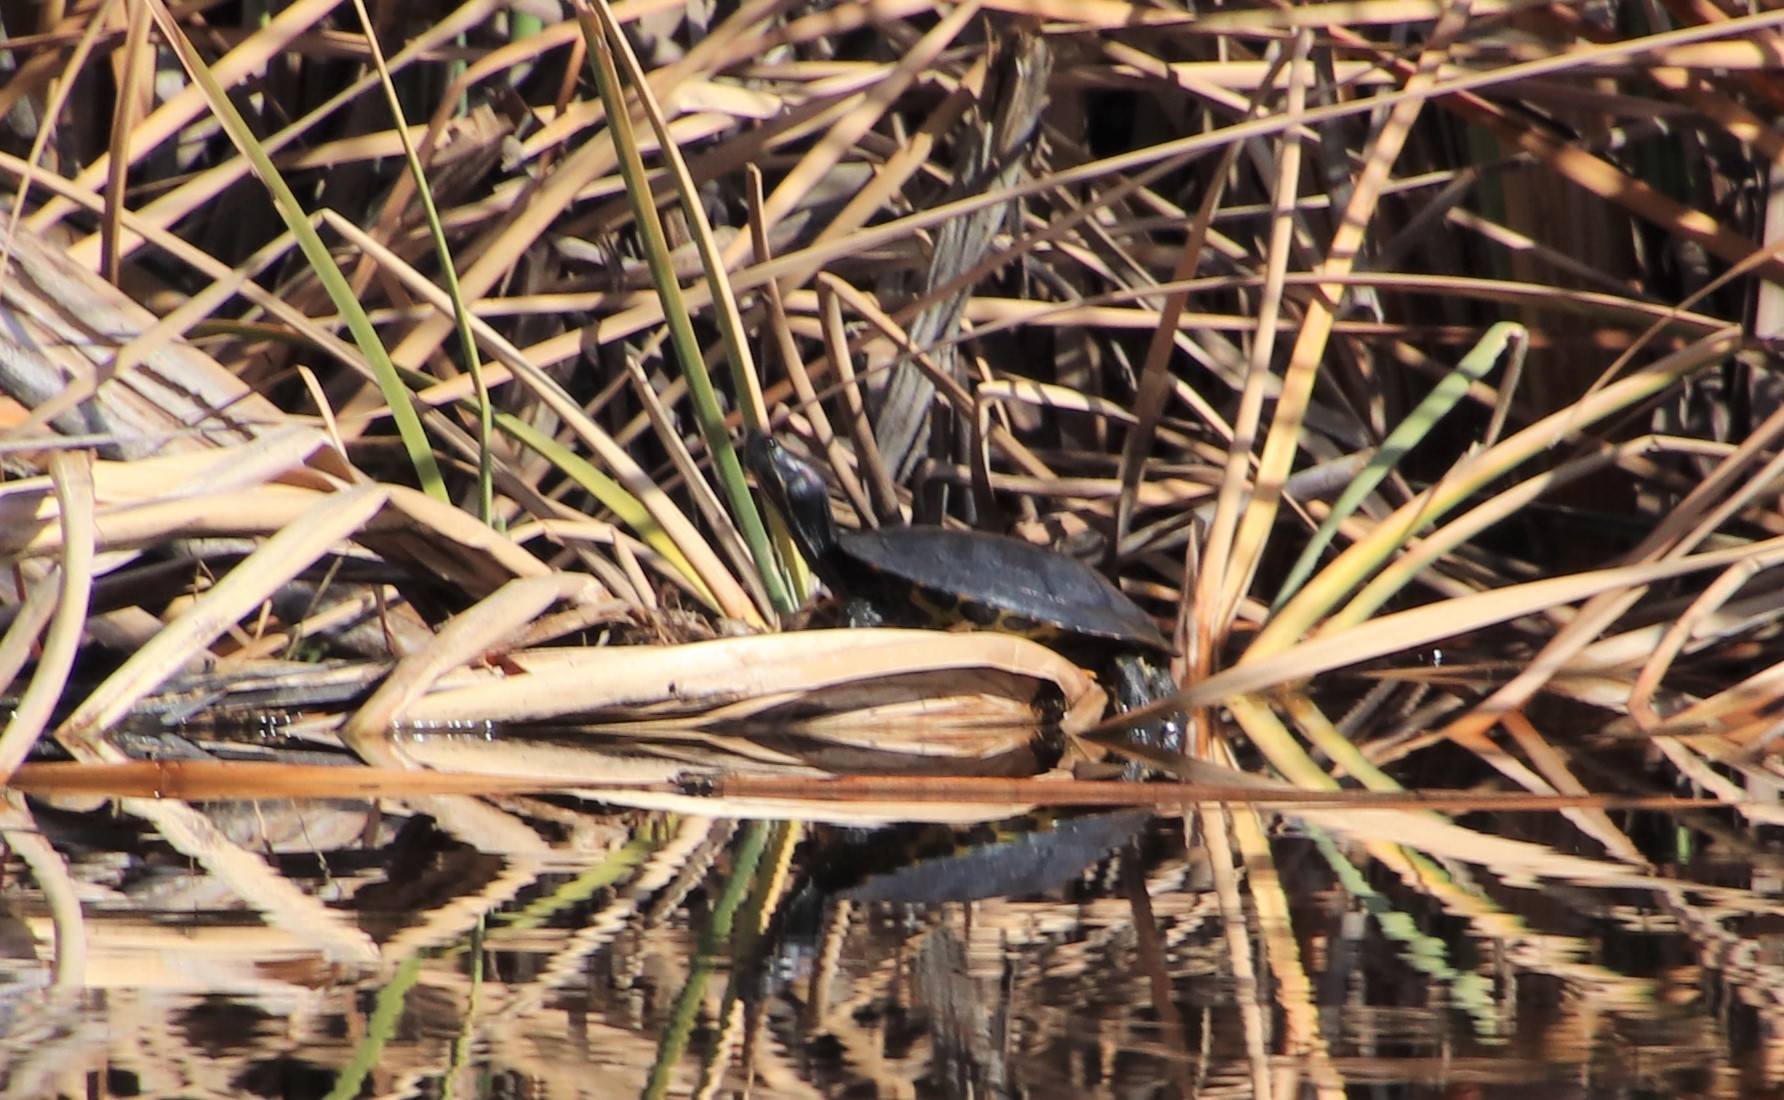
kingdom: Animalia
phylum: Chordata
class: Testudines
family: Emydidae
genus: Trachemys
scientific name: Trachemys scripta
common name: Slider
